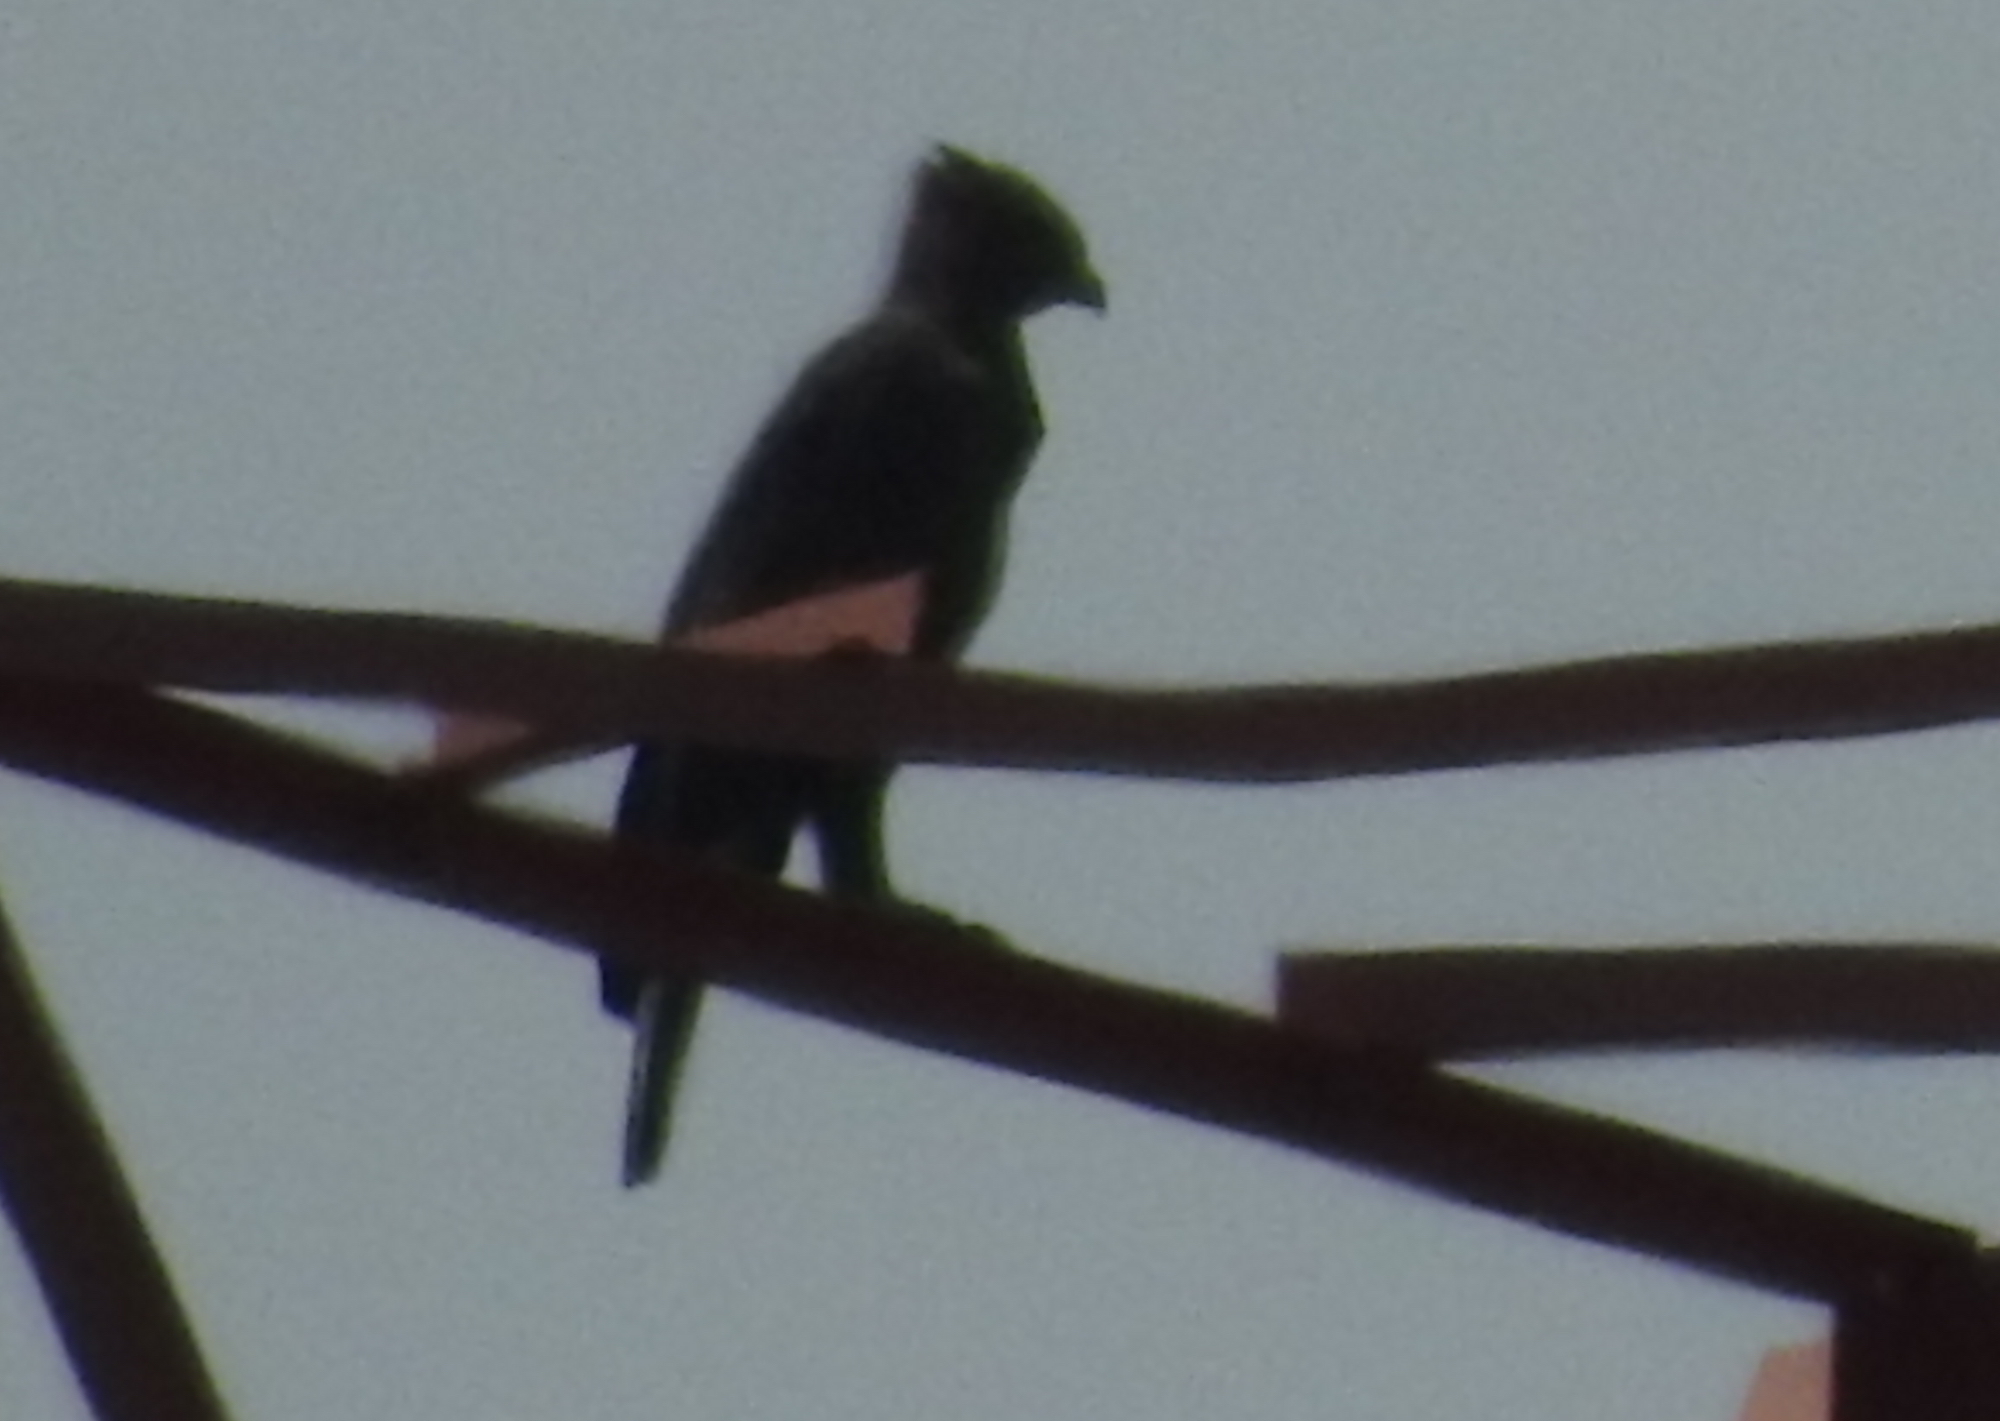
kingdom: Animalia
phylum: Chordata
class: Aves
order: Accipitriformes
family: Accipitridae
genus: Nisaetus
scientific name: Nisaetus cirrhatus
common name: Changeable hawk-eagle
